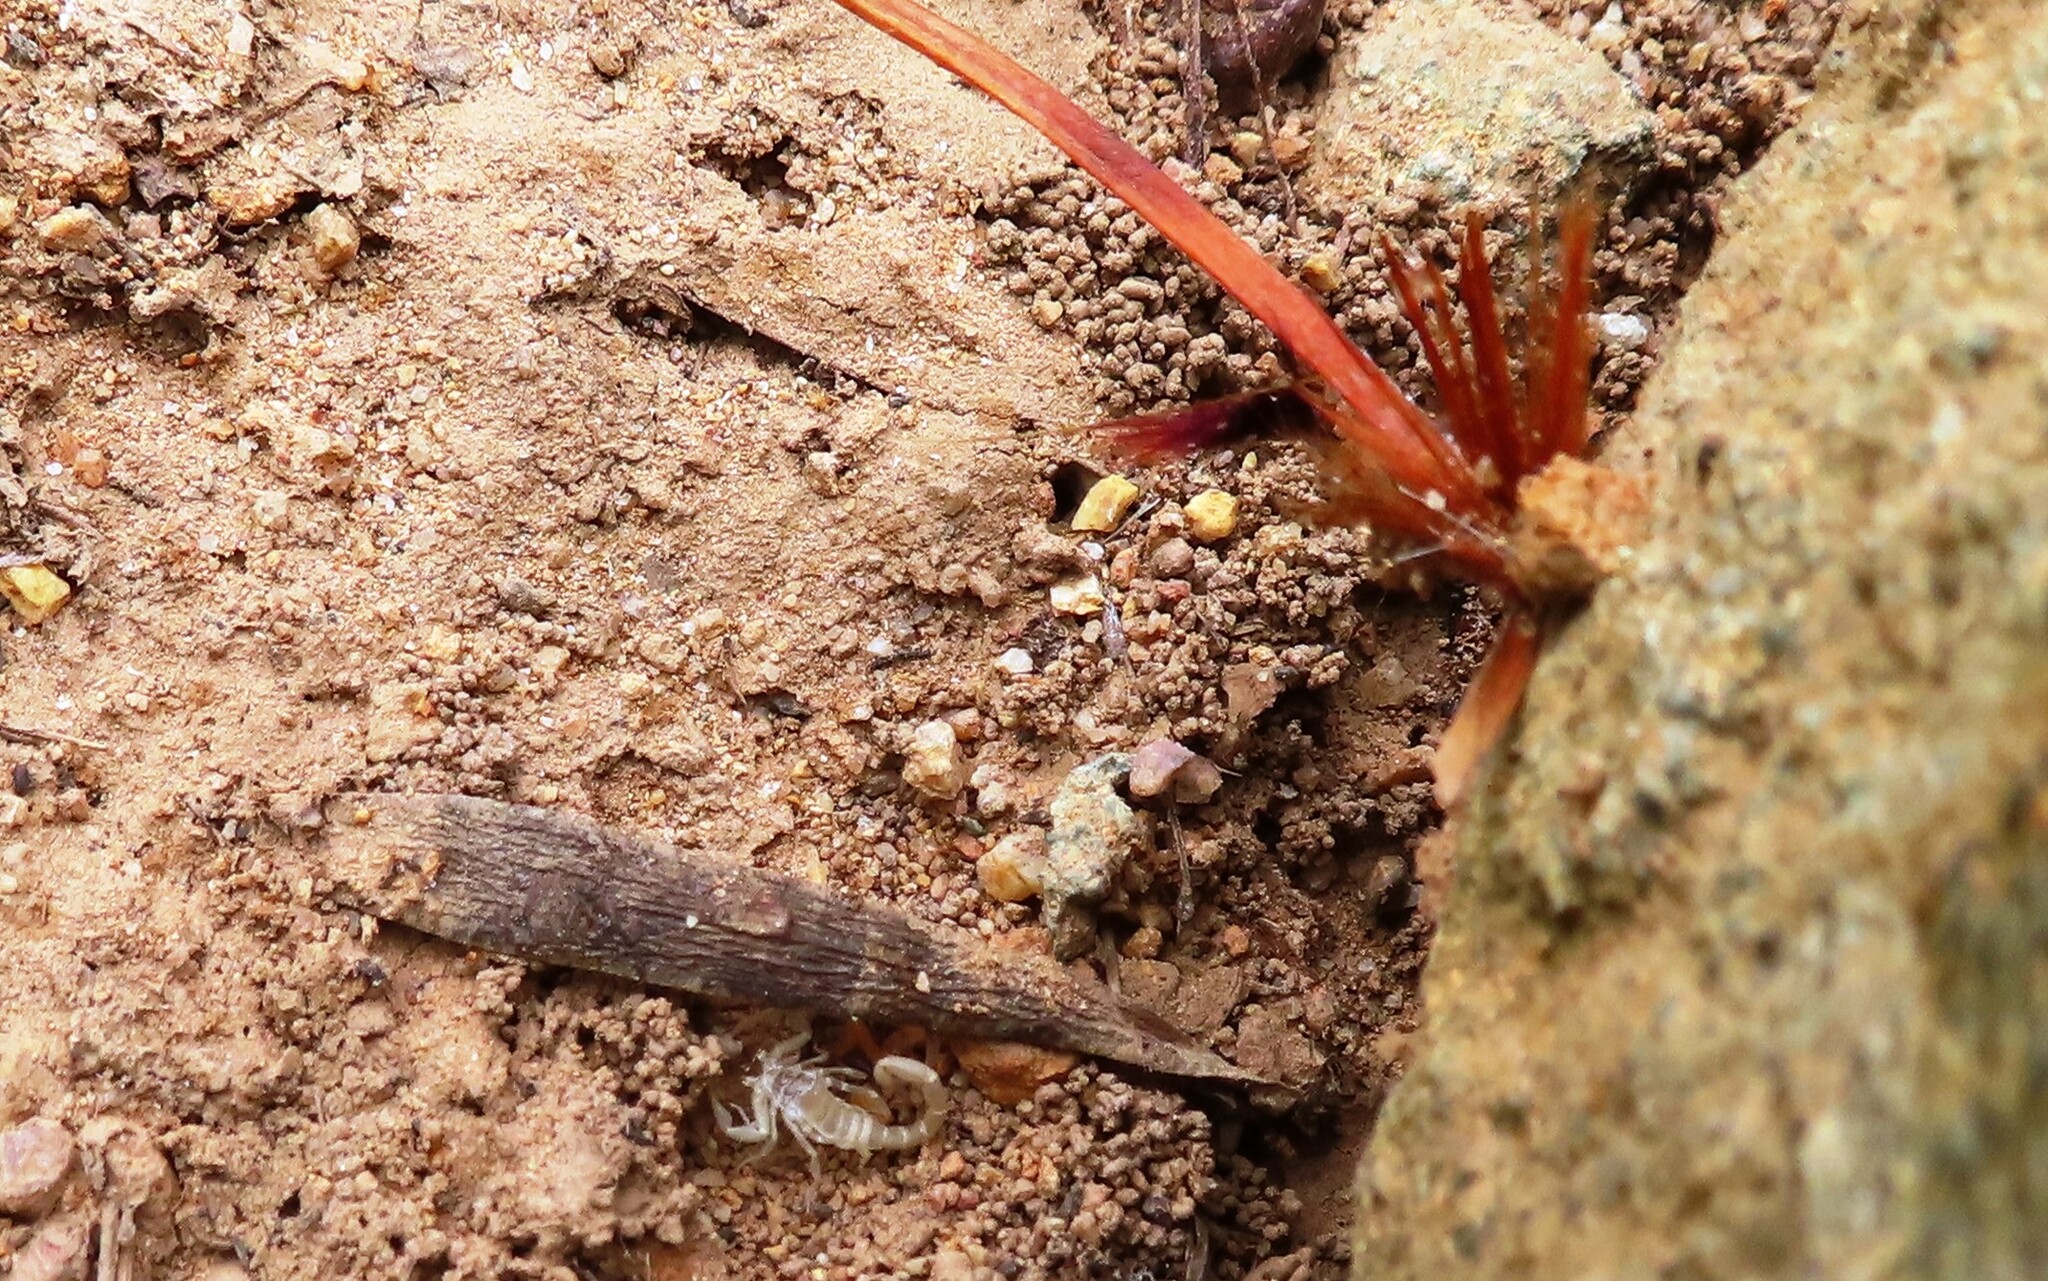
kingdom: Animalia
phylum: Arthropoda
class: Arachnida
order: Scorpiones
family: Buthidae
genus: Uroplectes
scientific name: Uroplectes lineatus
